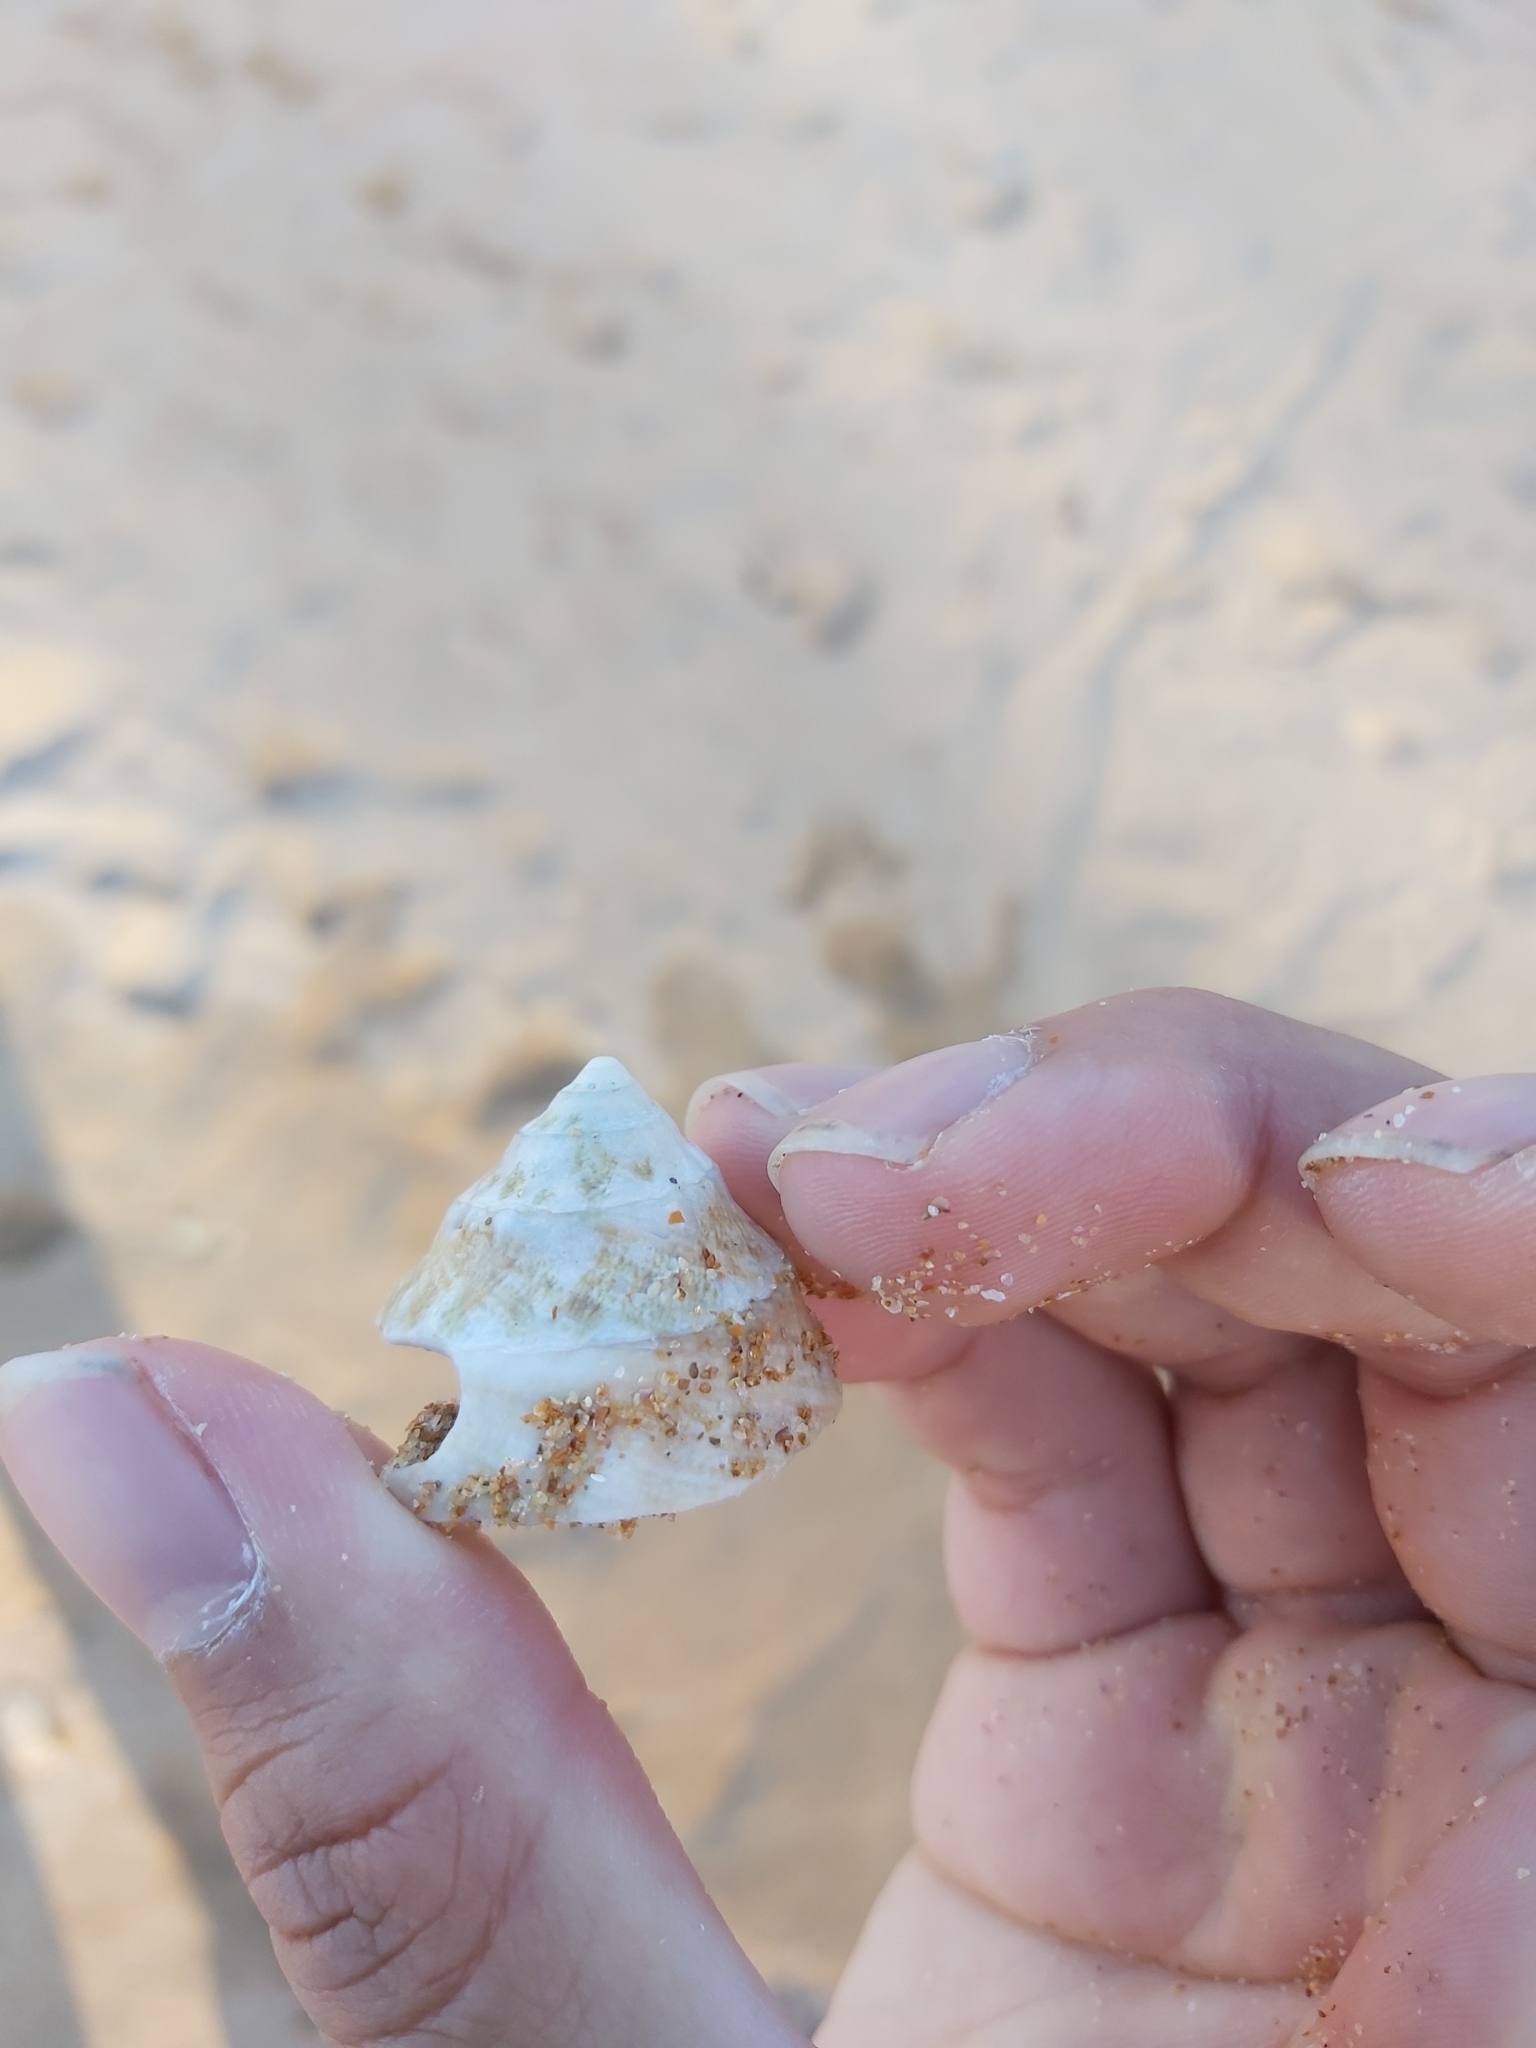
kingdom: Animalia
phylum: Mollusca
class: Gastropoda
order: Trochida
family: Turbinidae
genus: Astralium
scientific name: Astralium tentoriiforme
